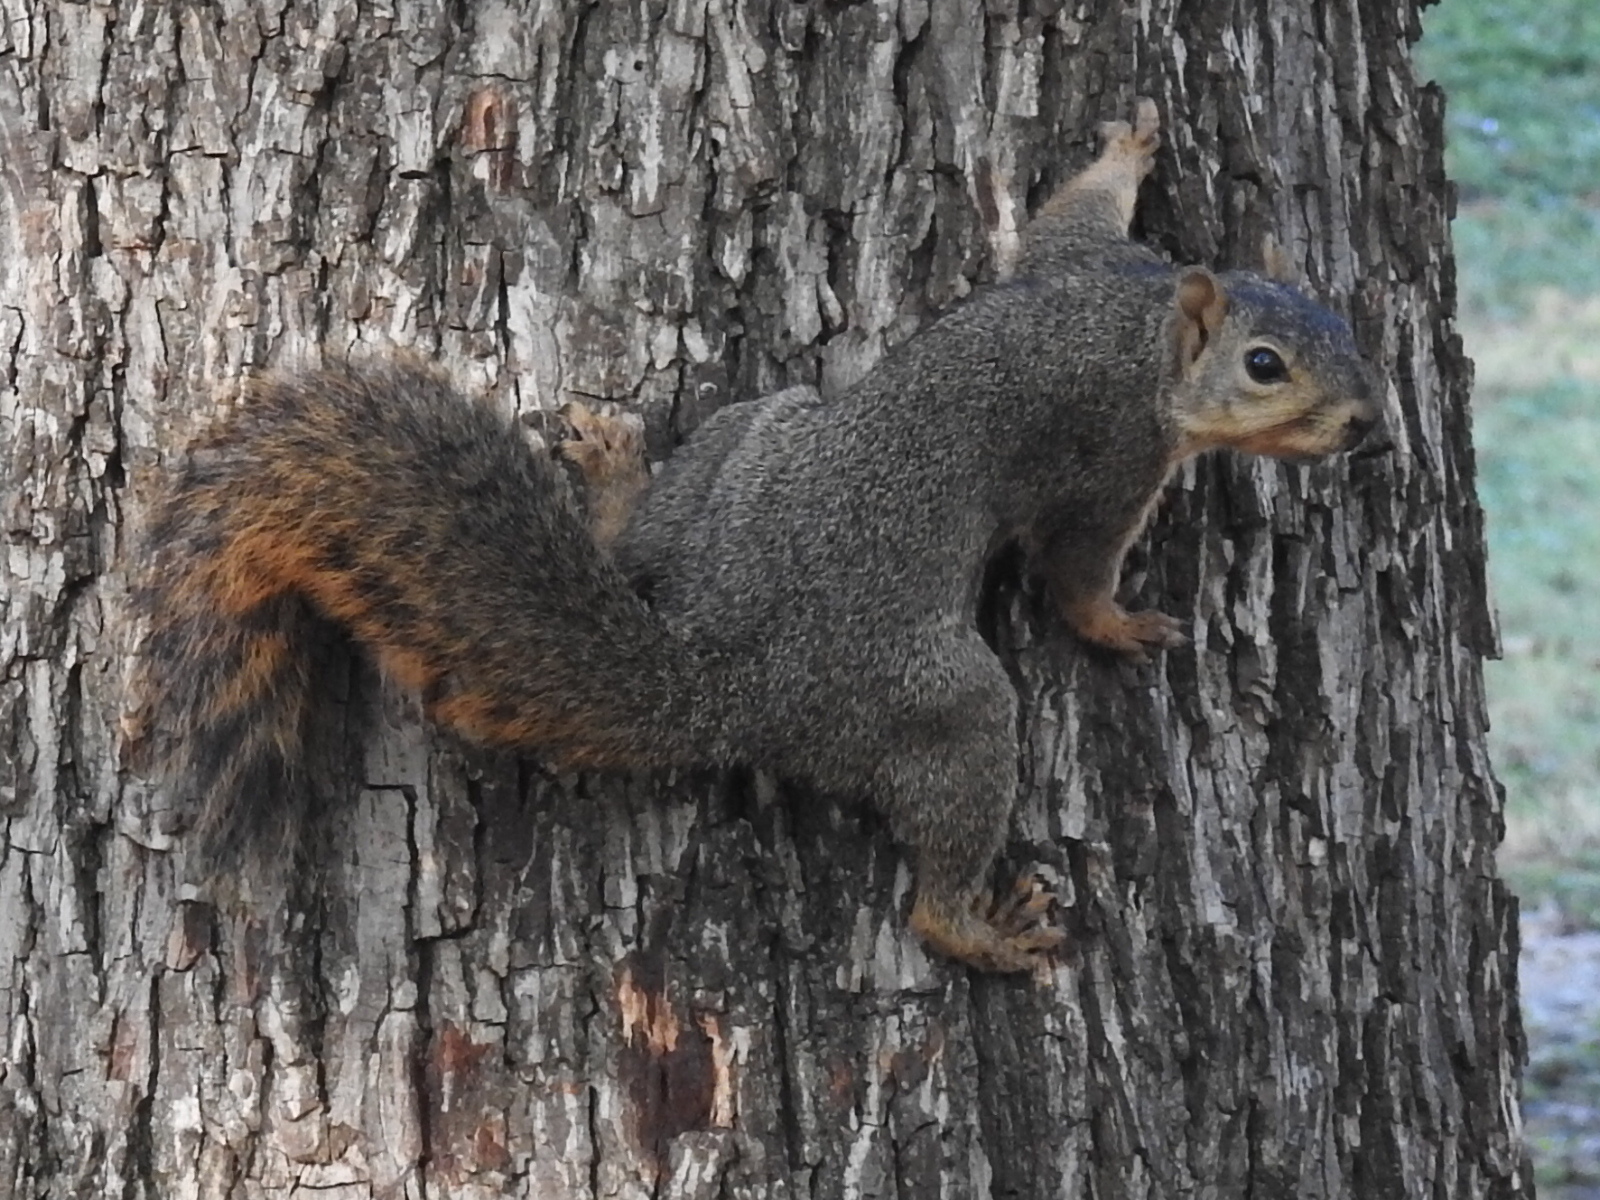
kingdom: Animalia
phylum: Chordata
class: Mammalia
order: Rodentia
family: Sciuridae
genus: Sciurus
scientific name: Sciurus niger
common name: Fox squirrel
